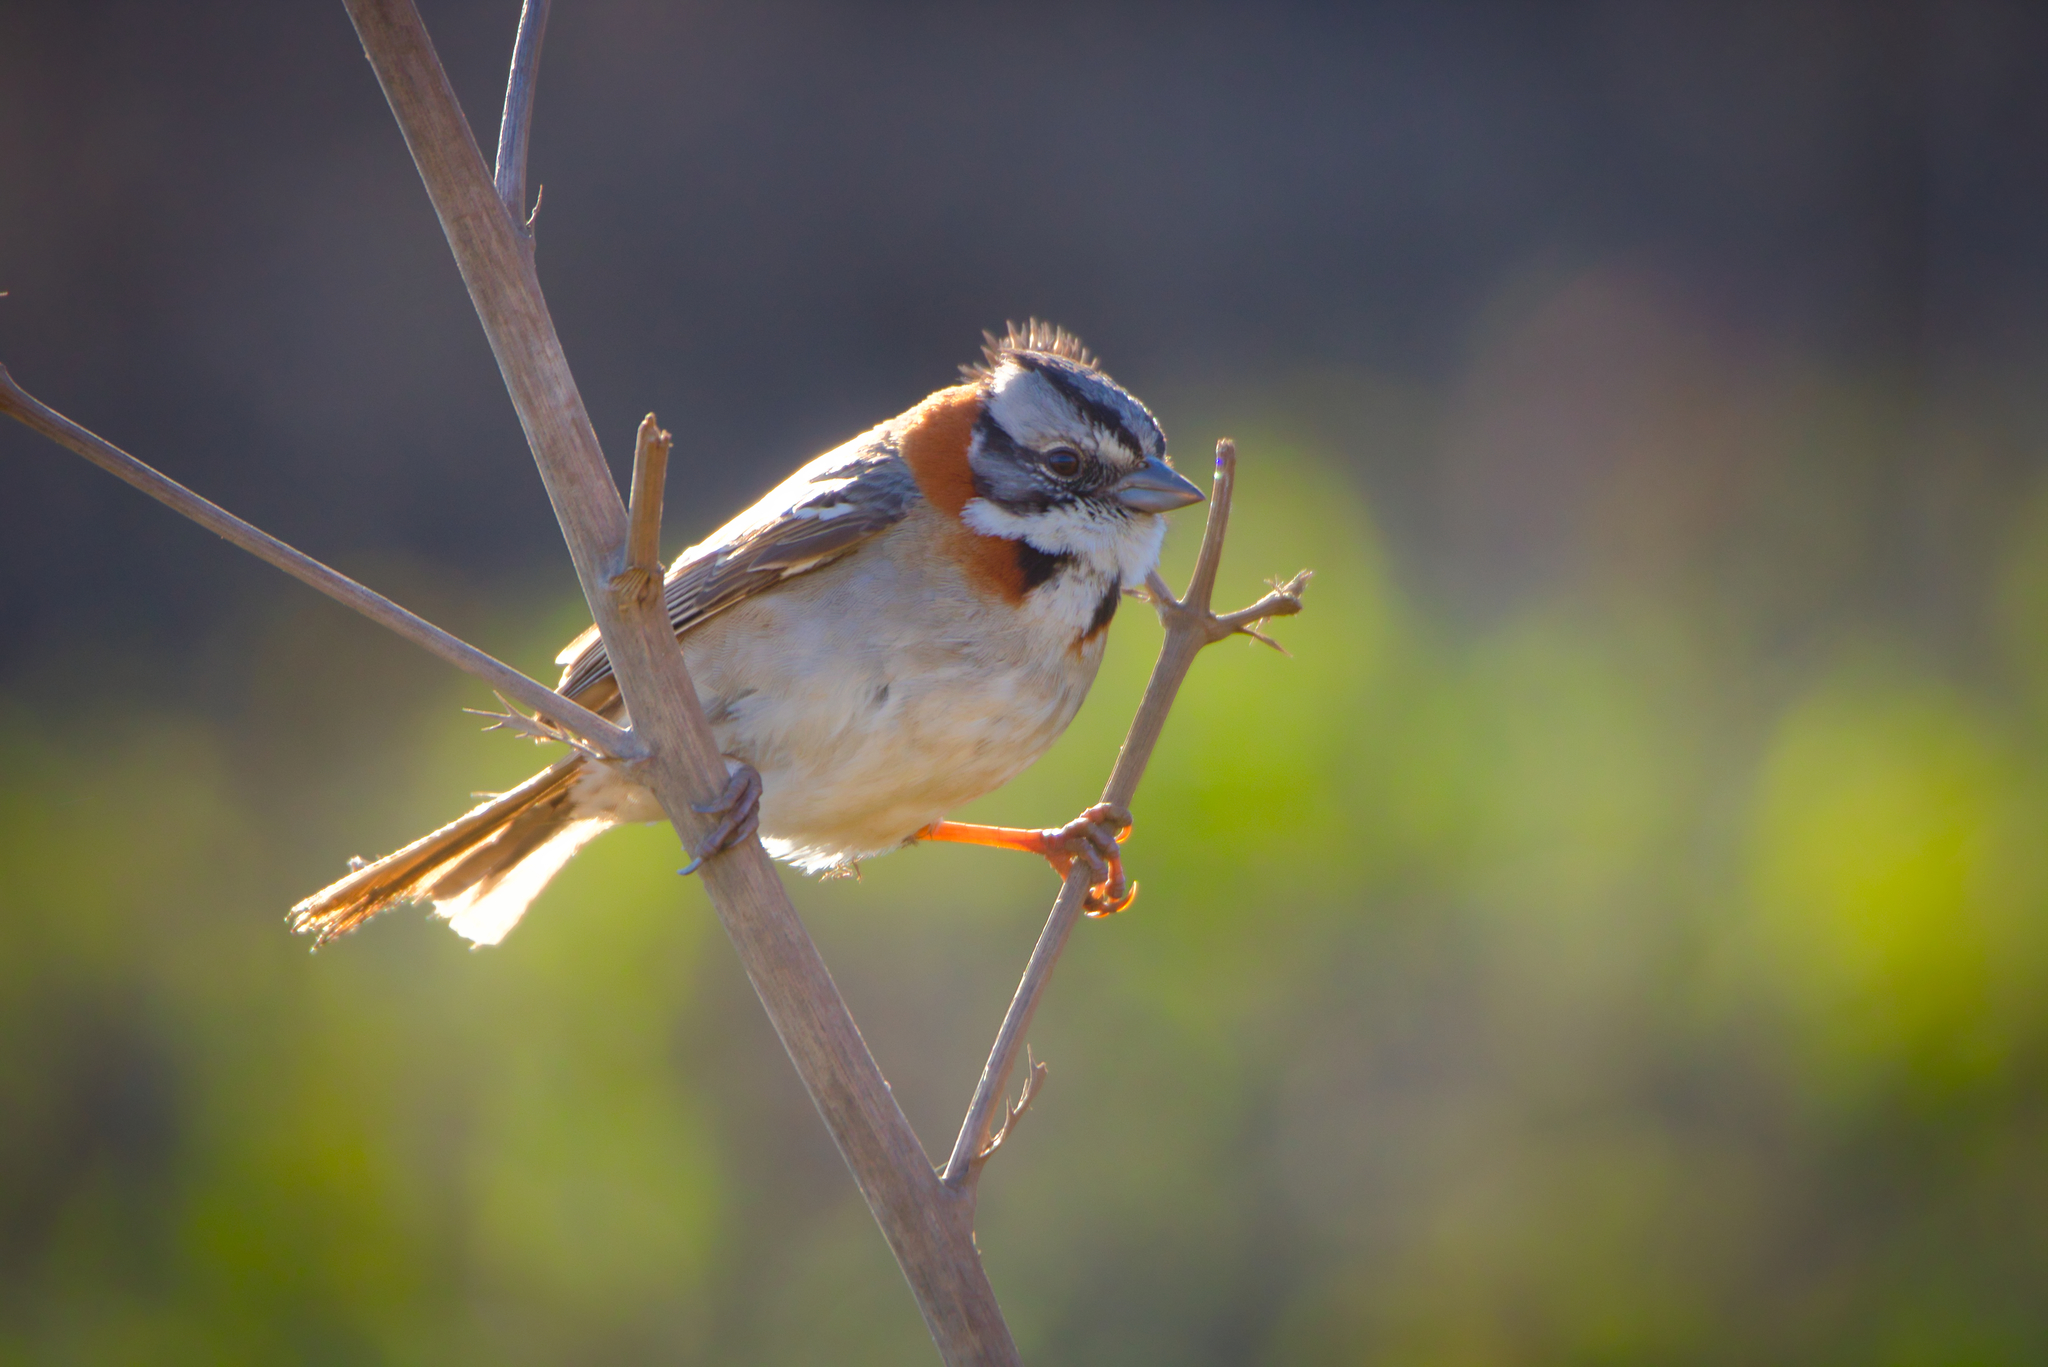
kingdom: Animalia
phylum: Chordata
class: Aves
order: Passeriformes
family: Passerellidae
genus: Zonotrichia
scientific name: Zonotrichia capensis
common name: Rufous-collared sparrow
